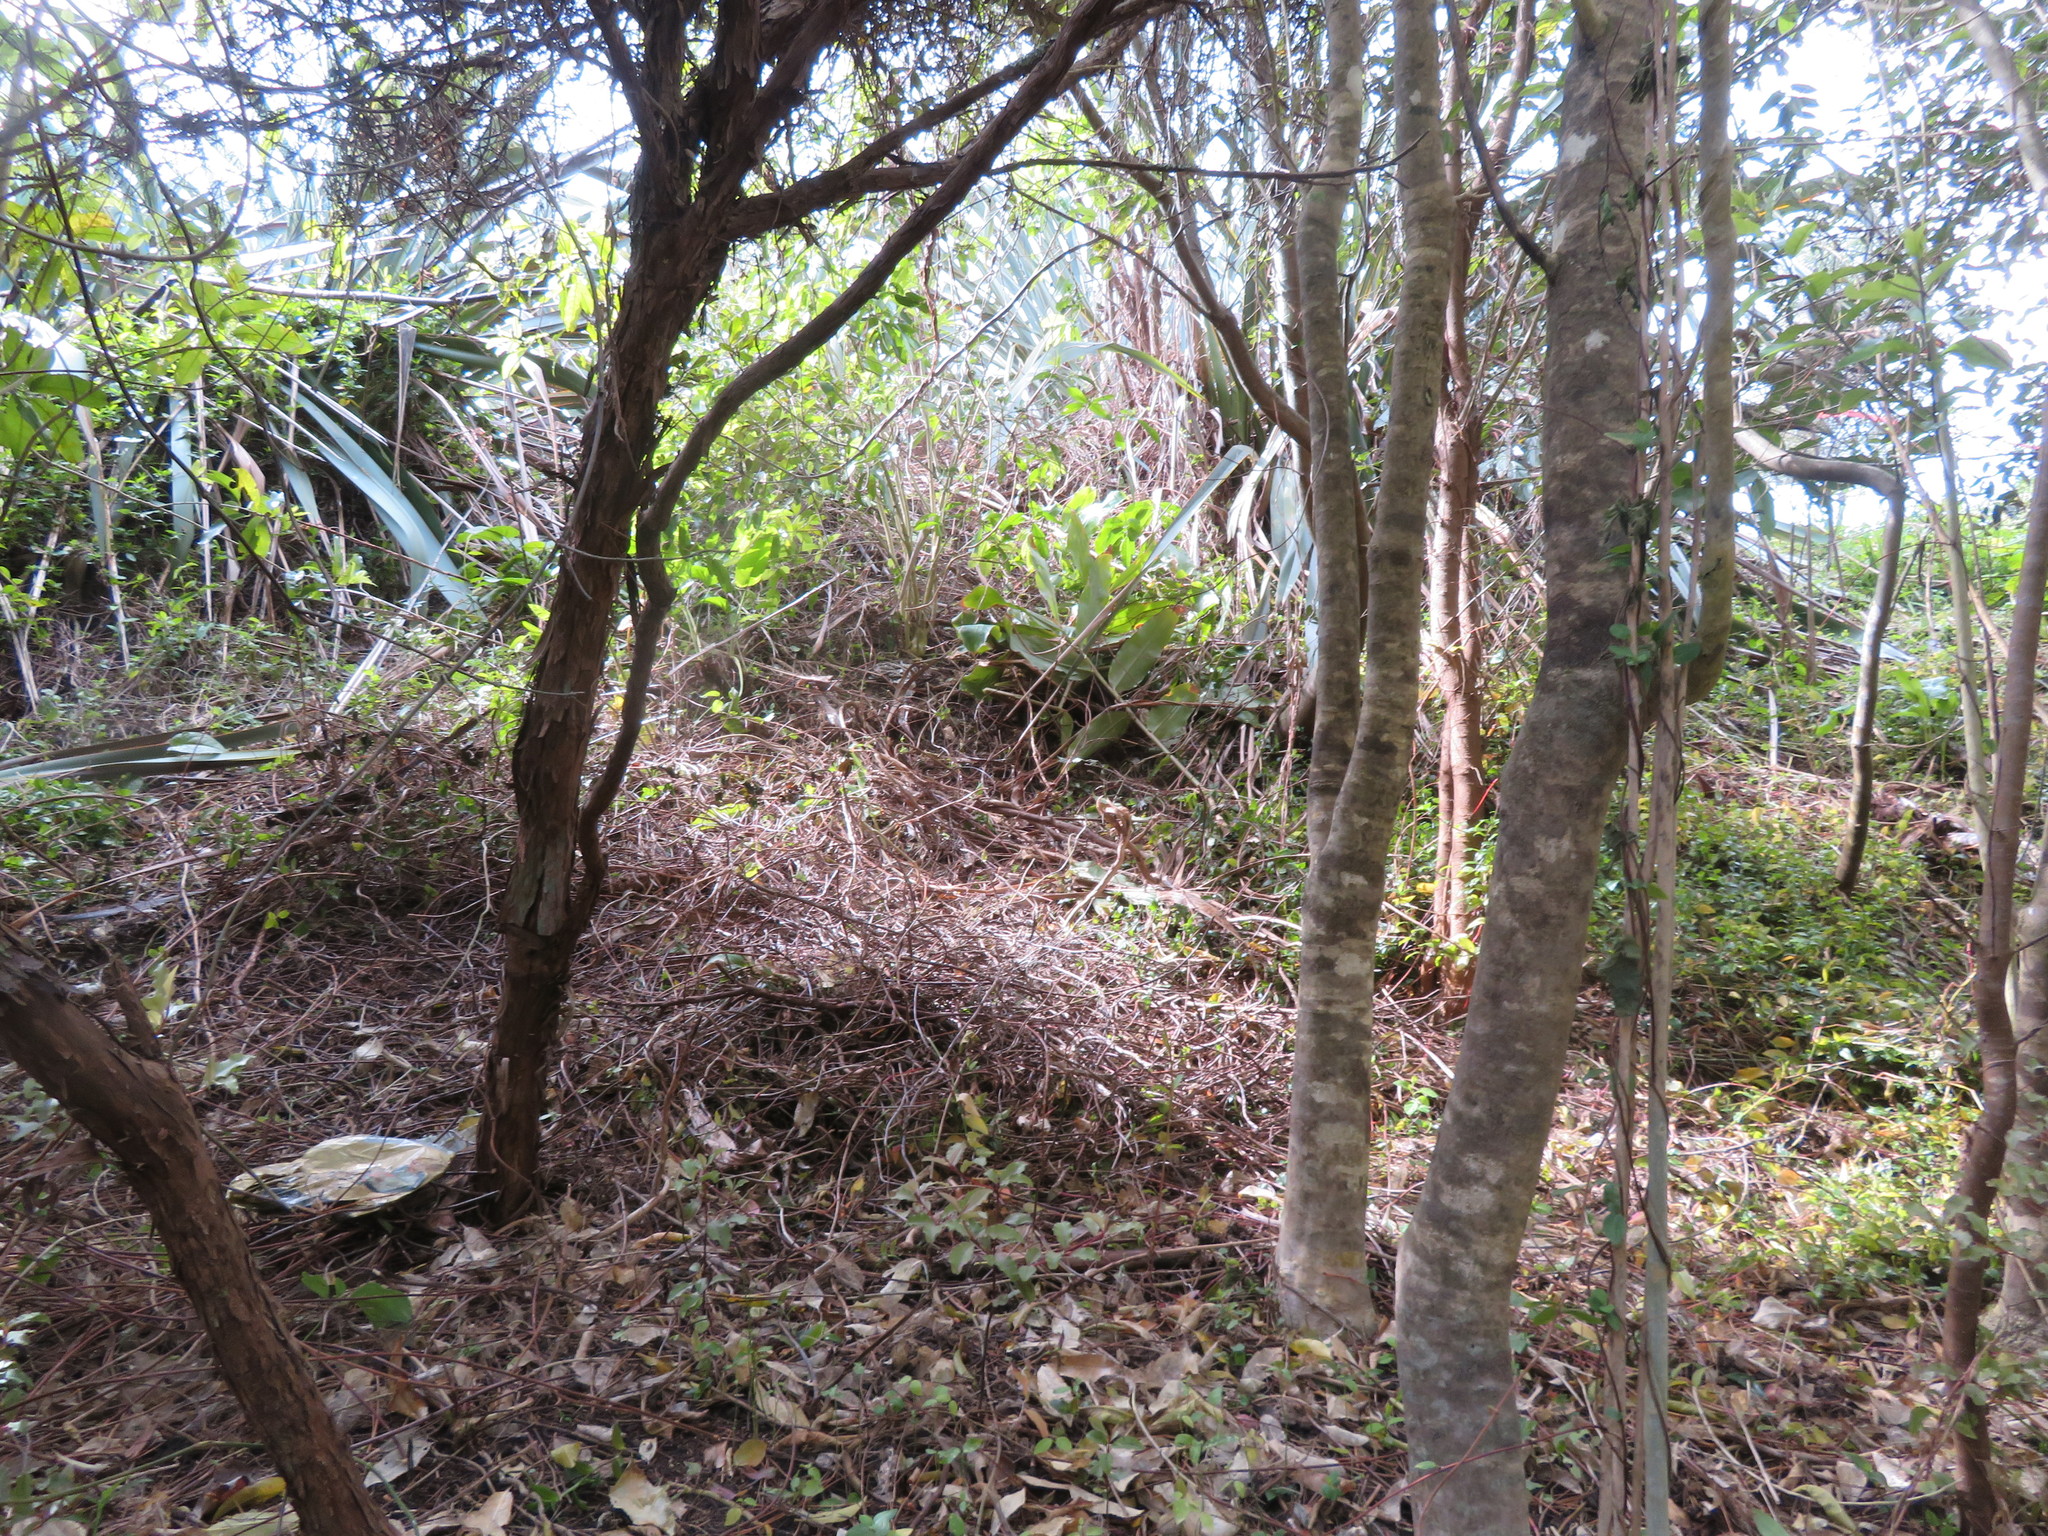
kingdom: Plantae
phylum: Tracheophyta
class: Liliopsida
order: Zingiberales
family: Zingiberaceae
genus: Hedychium
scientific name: Hedychium gardnerianum
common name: Himalayan ginger
